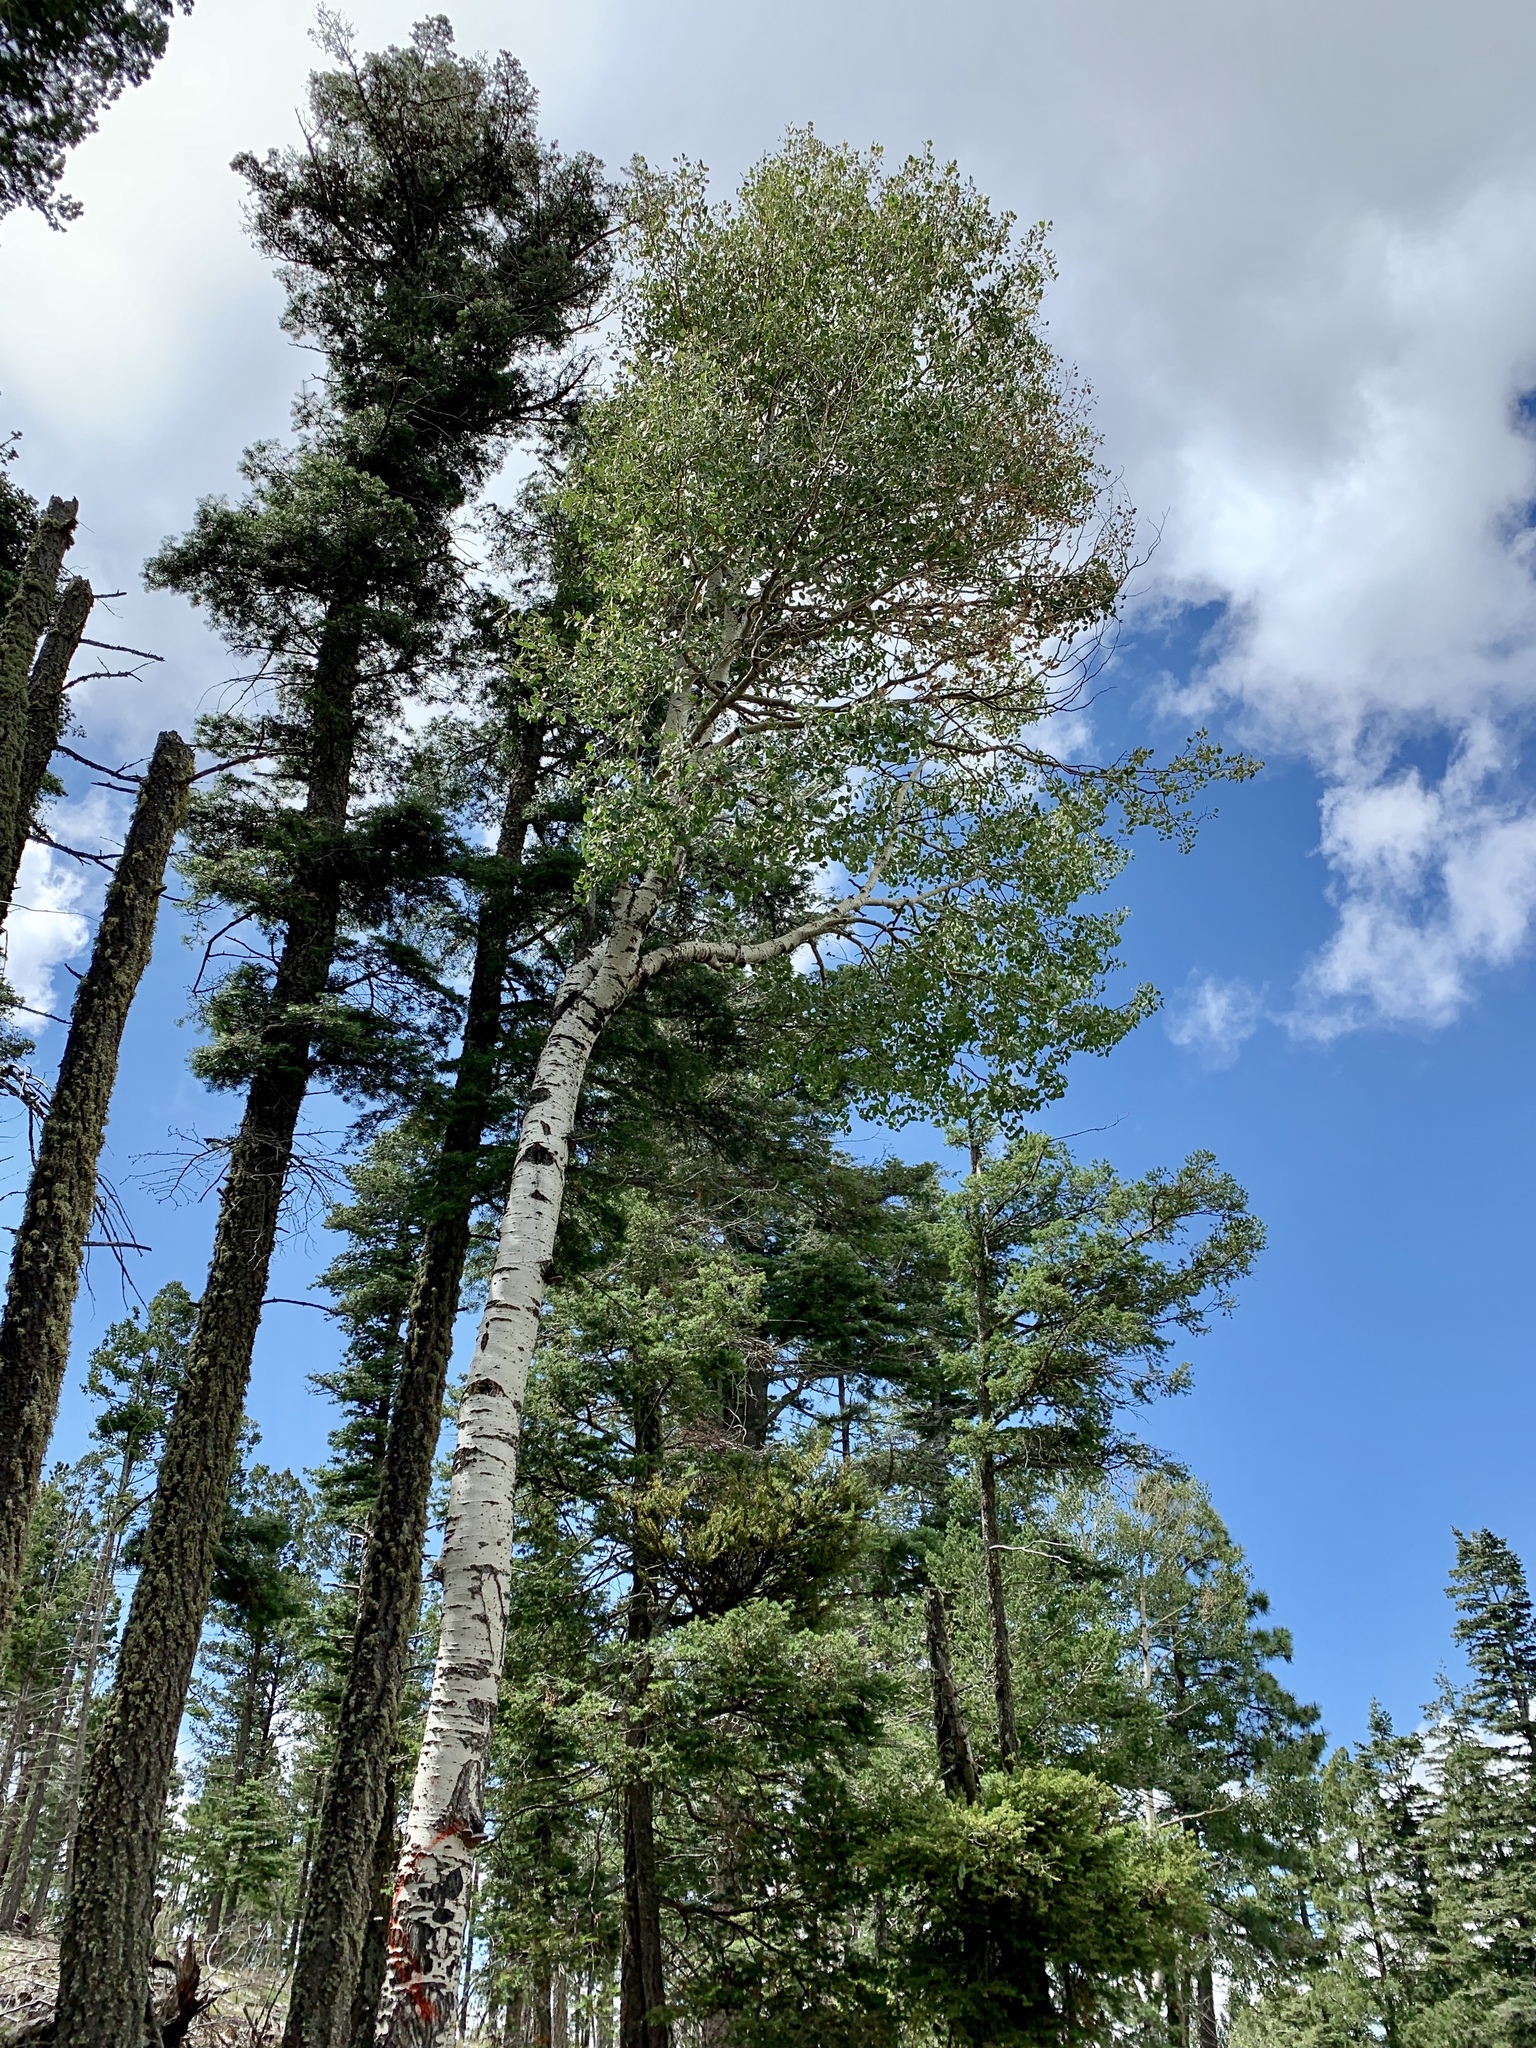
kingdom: Plantae
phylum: Tracheophyta
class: Magnoliopsida
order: Malpighiales
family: Salicaceae
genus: Populus
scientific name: Populus tremuloides
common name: Quaking aspen
